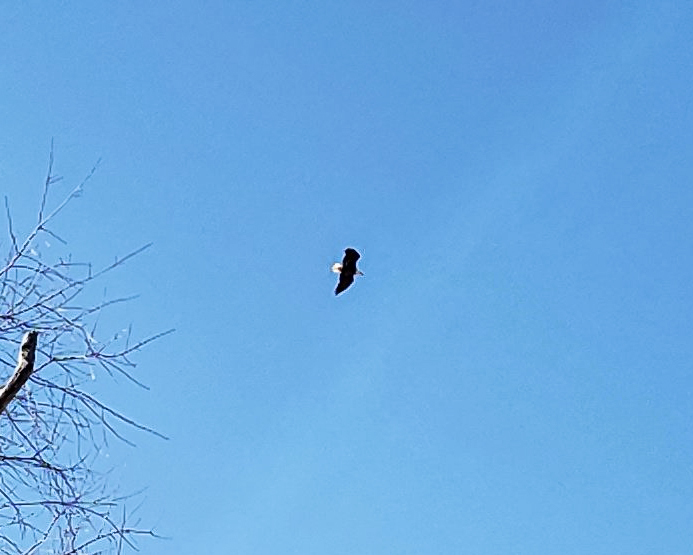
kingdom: Animalia
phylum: Chordata
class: Aves
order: Accipitriformes
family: Accipitridae
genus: Haliaeetus
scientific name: Haliaeetus leucocephalus
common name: Bald eagle
